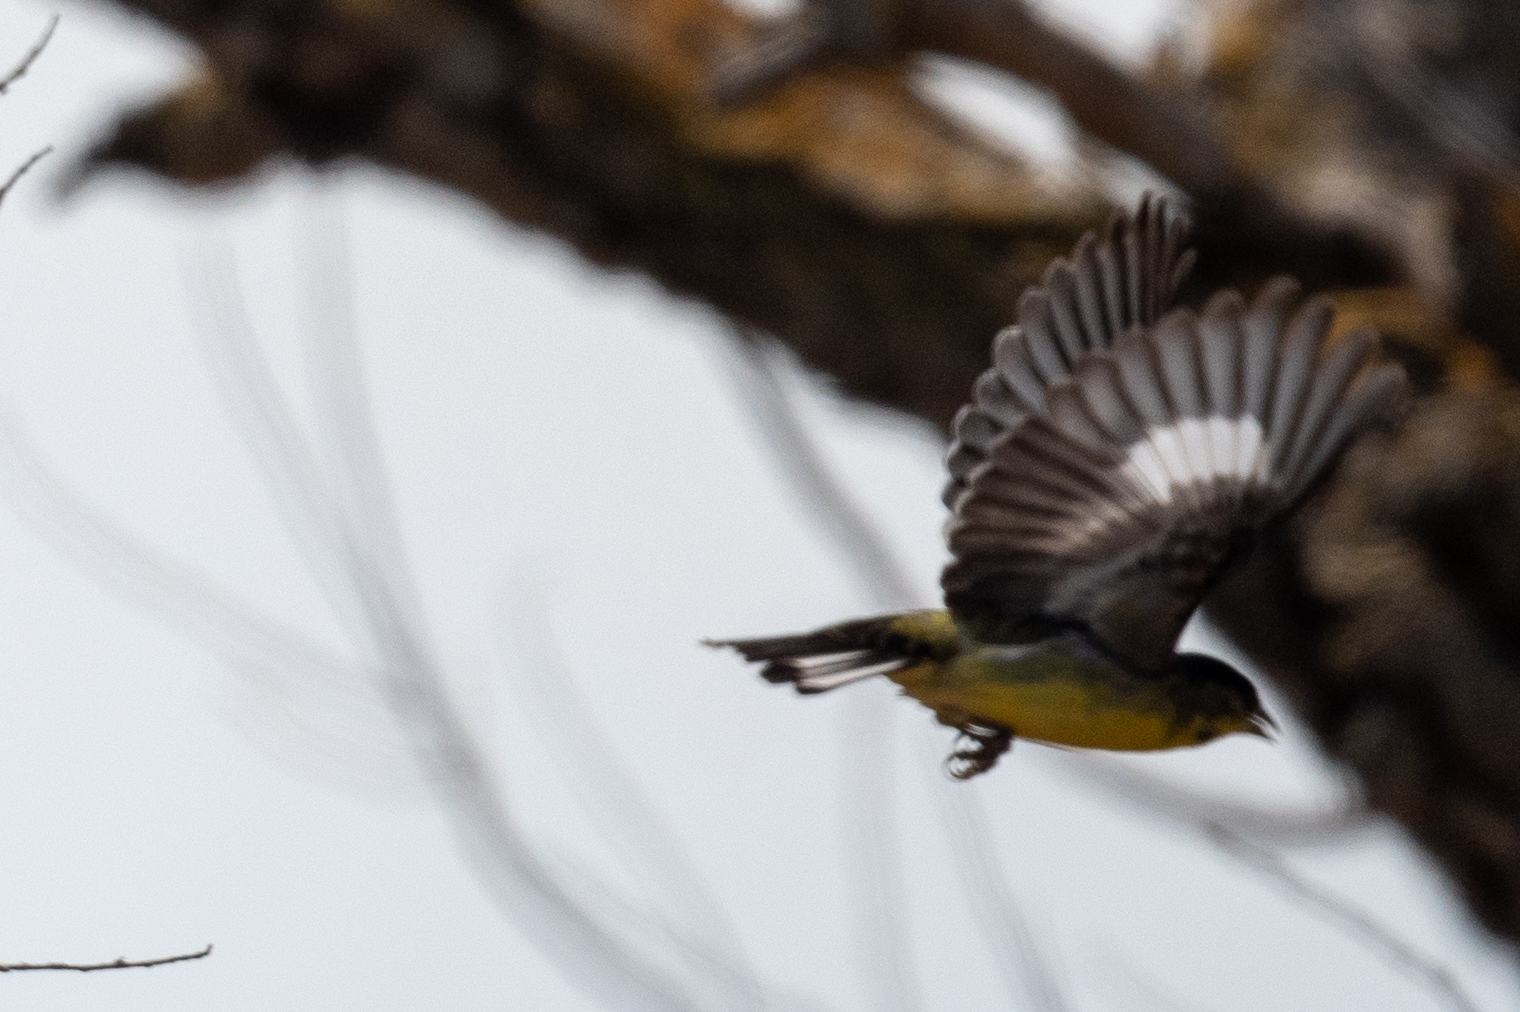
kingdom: Animalia
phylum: Chordata
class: Aves
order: Passeriformes
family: Fringillidae
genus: Spinus
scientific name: Spinus psaltria
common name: Lesser goldfinch
